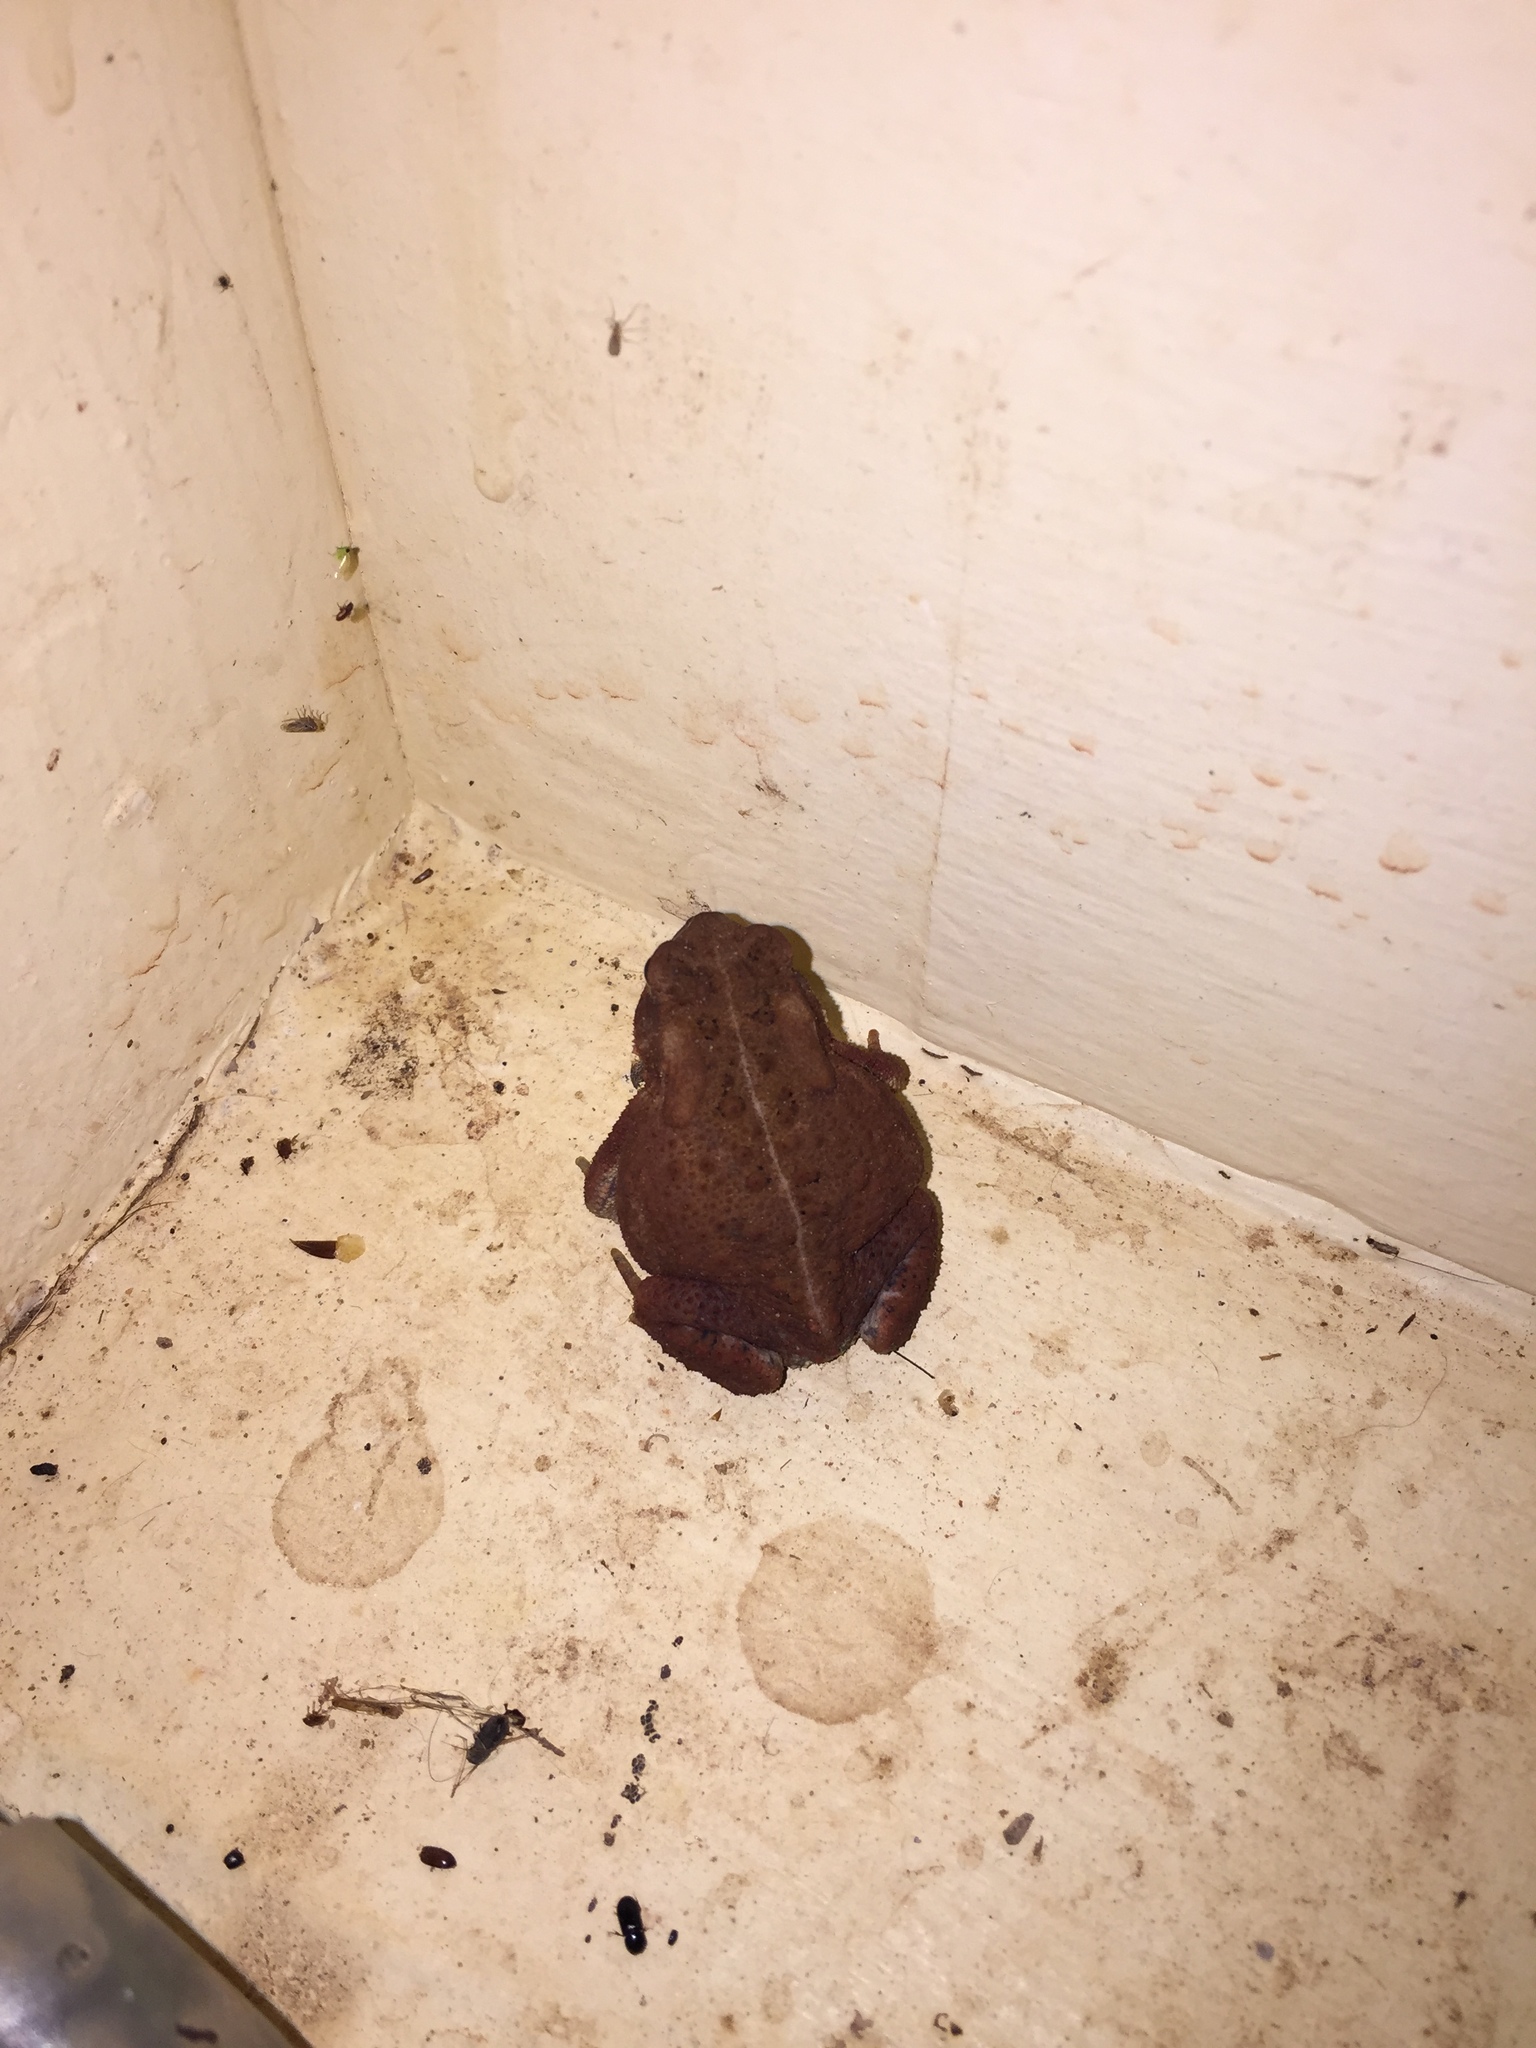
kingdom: Animalia
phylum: Chordata
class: Amphibia
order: Anura
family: Bufonidae
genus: Anaxyrus
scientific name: Anaxyrus americanus
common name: American toad
